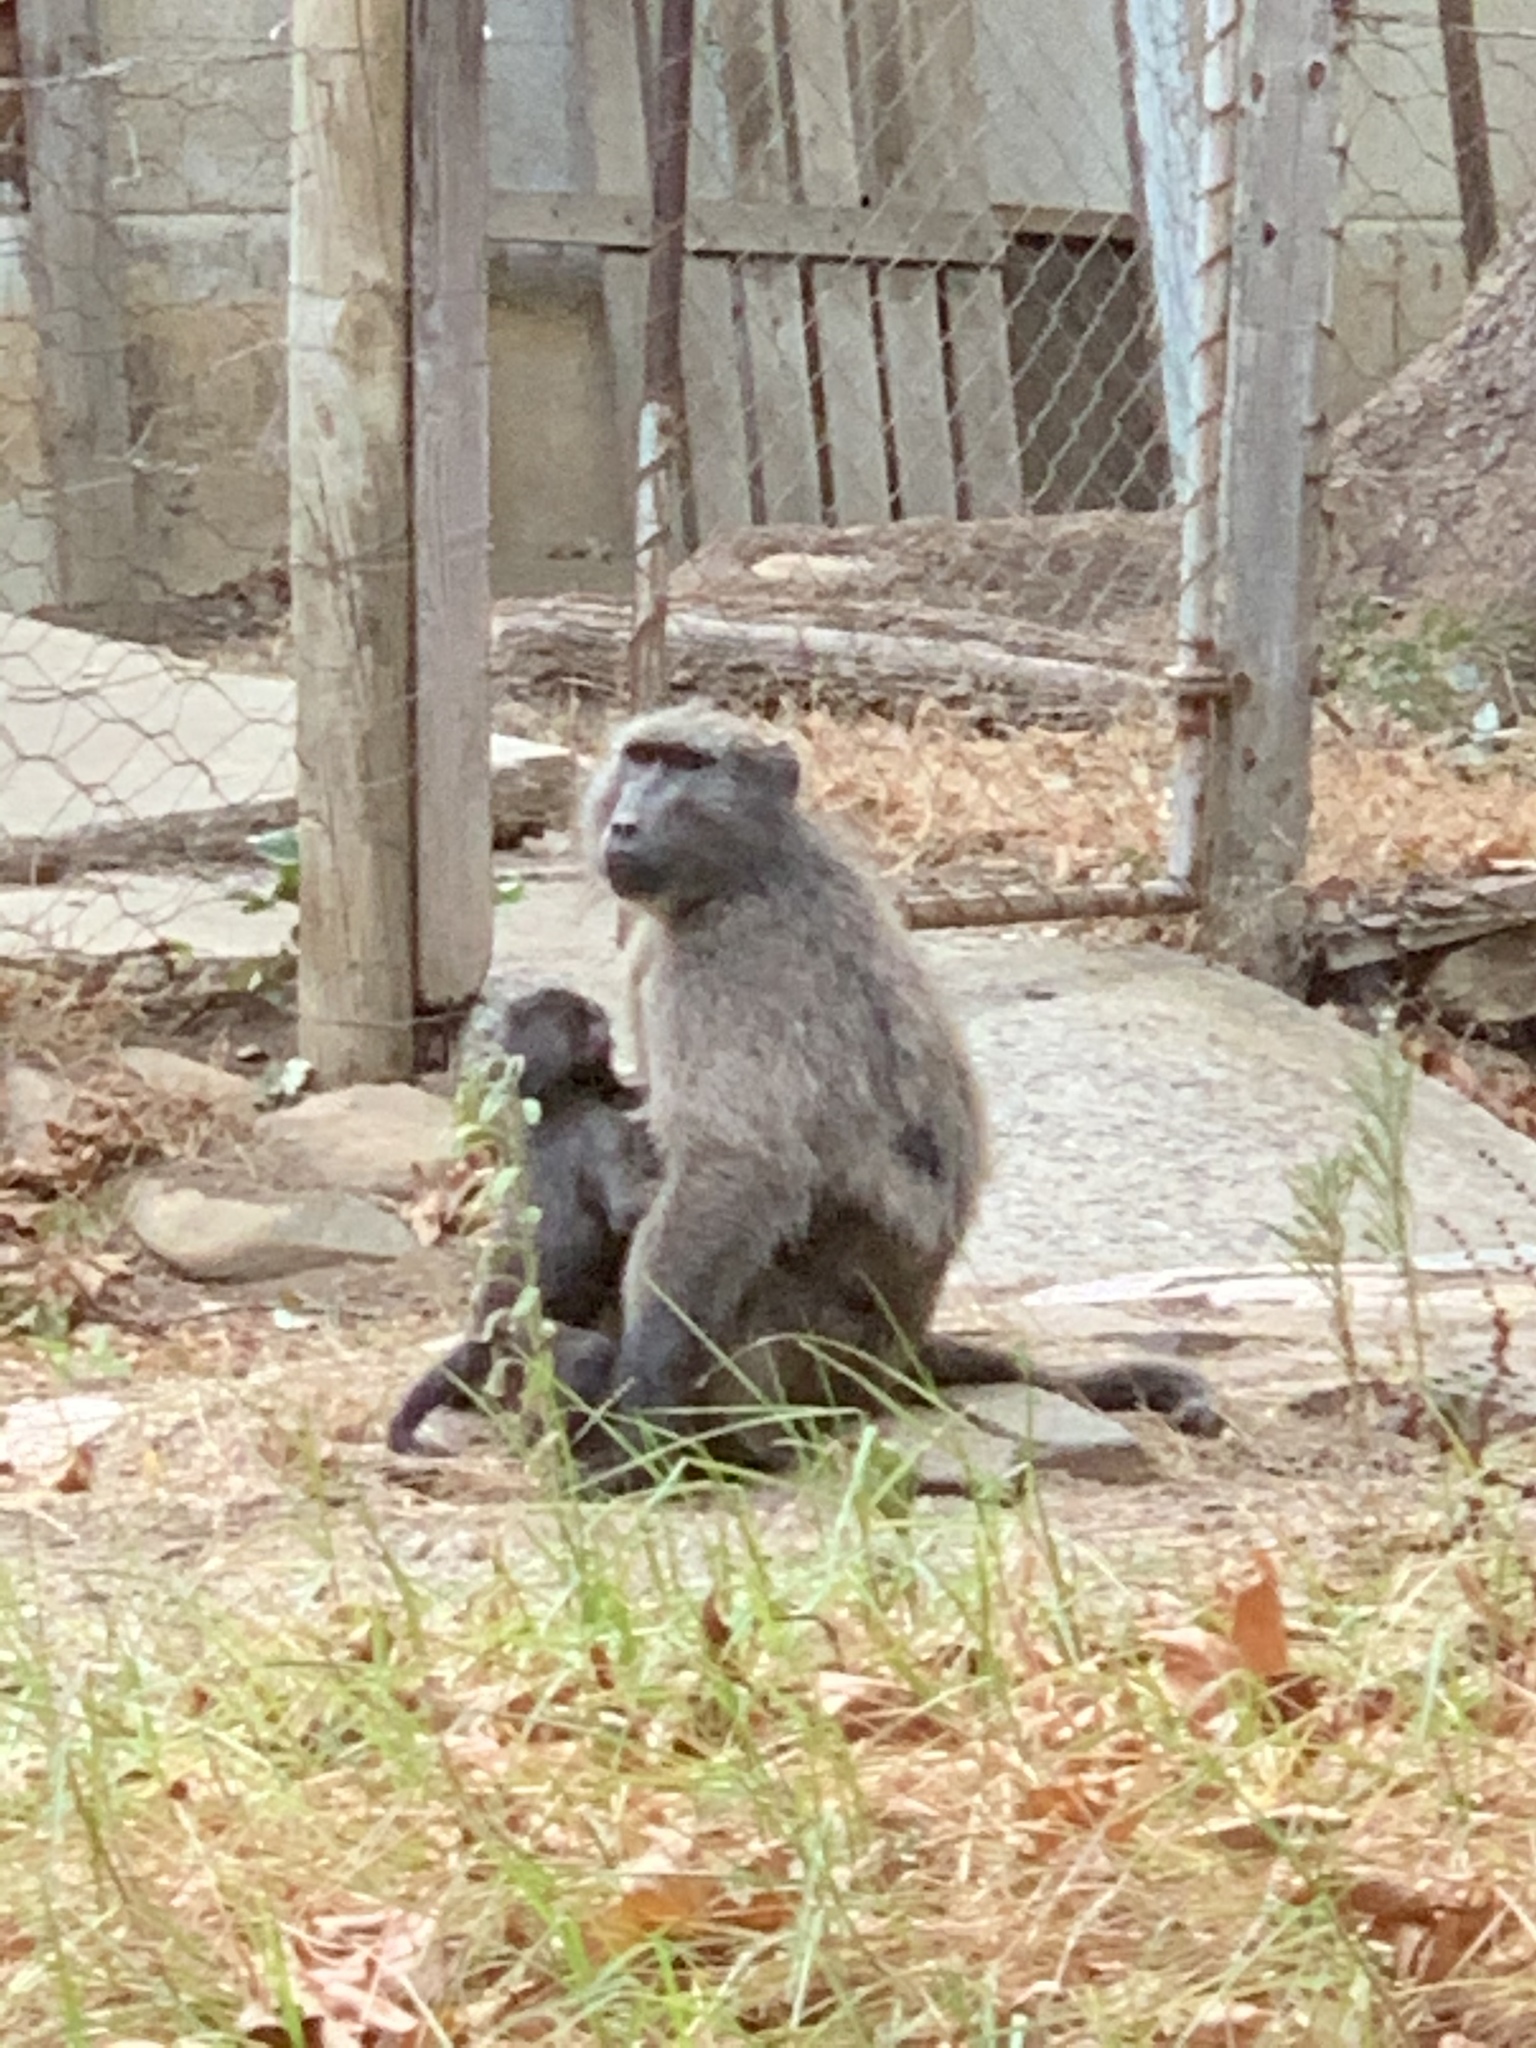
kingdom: Animalia
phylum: Chordata
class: Mammalia
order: Primates
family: Cercopithecidae
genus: Papio
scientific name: Papio ursinus
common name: Chacma baboon
